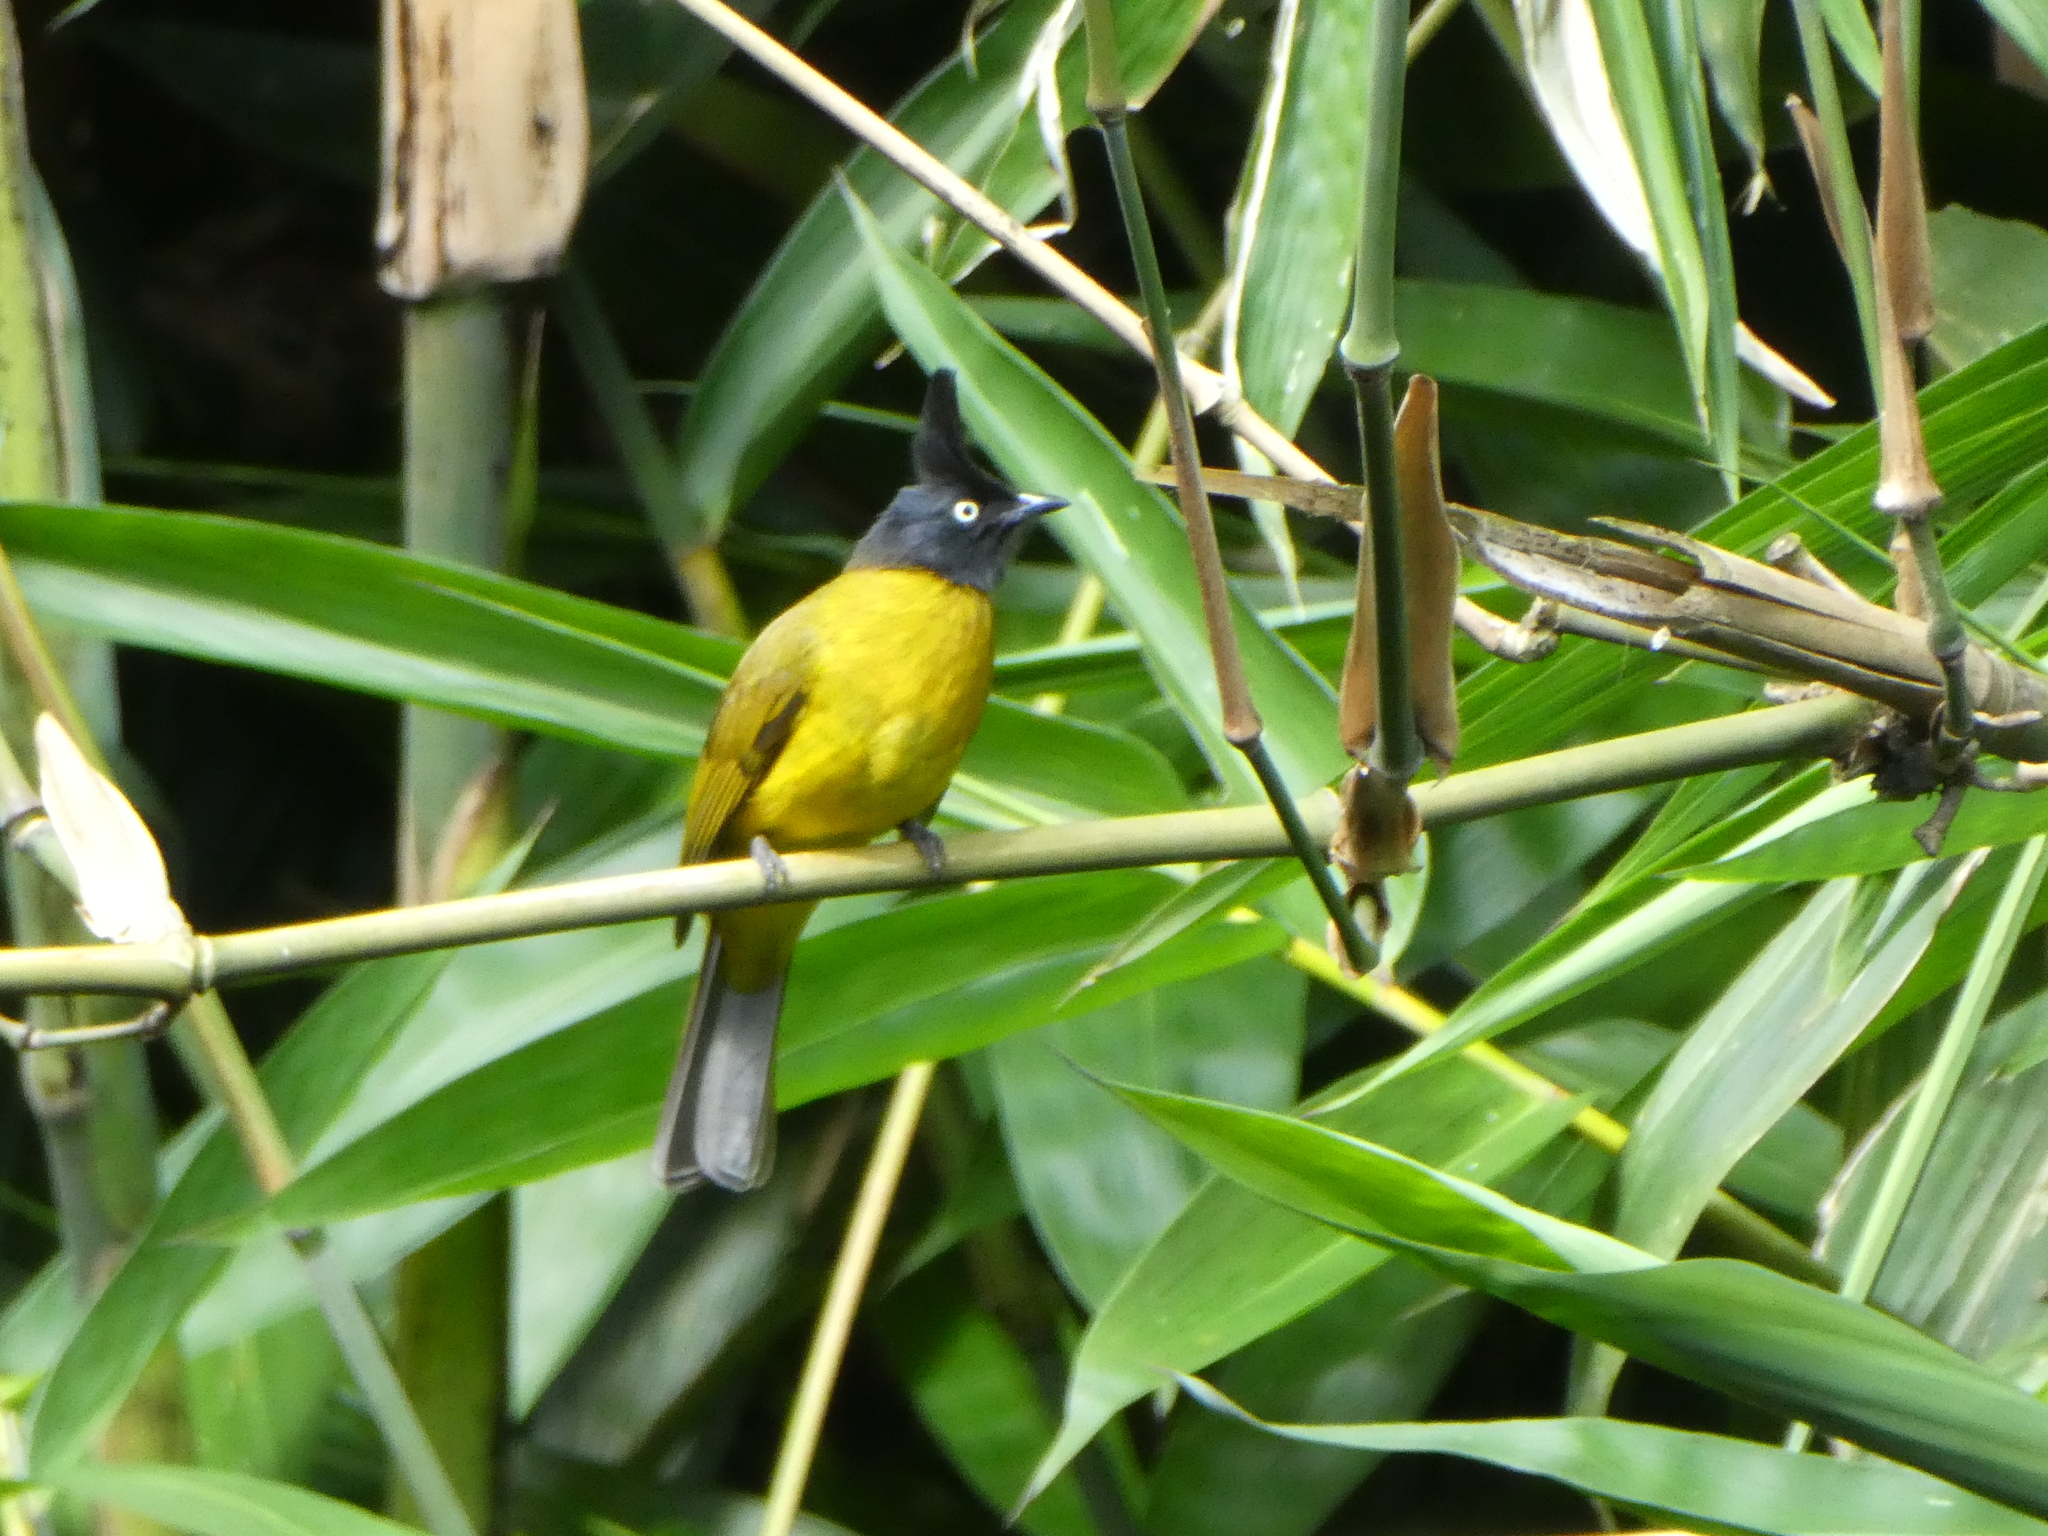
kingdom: Animalia
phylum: Chordata
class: Aves
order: Passeriformes
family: Pycnonotidae
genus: Pycnonotus
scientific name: Pycnonotus flaviventris
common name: Black-crested bulbul
